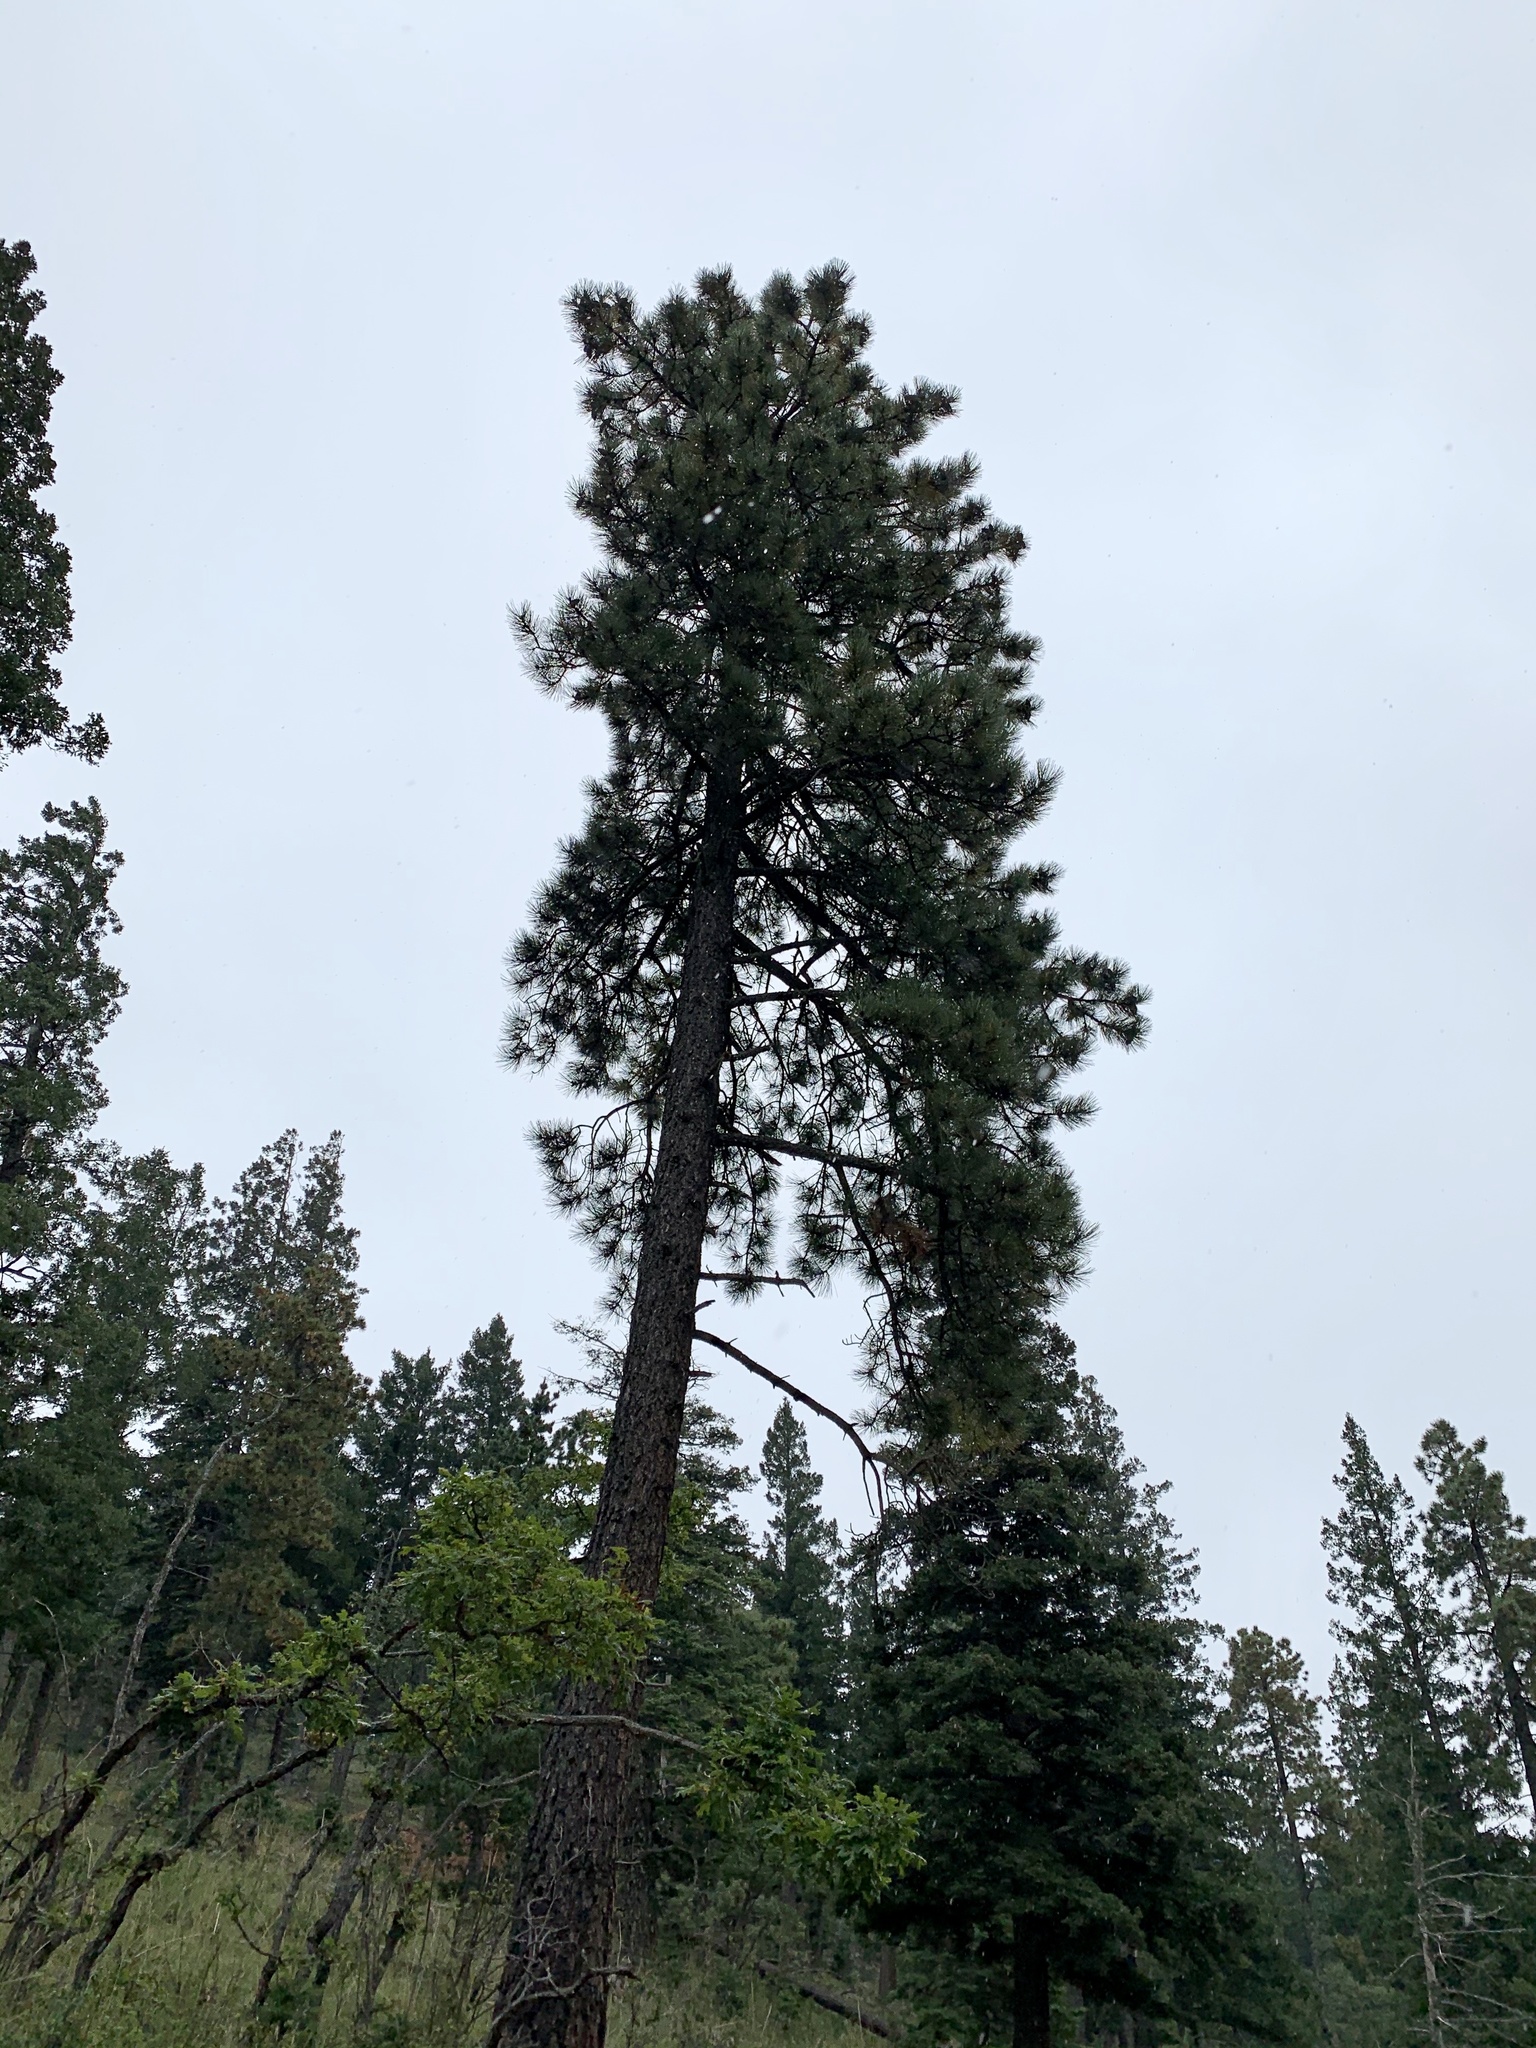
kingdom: Plantae
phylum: Tracheophyta
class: Pinopsida
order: Pinales
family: Pinaceae
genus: Pinus
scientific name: Pinus ponderosa
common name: Western yellow-pine
